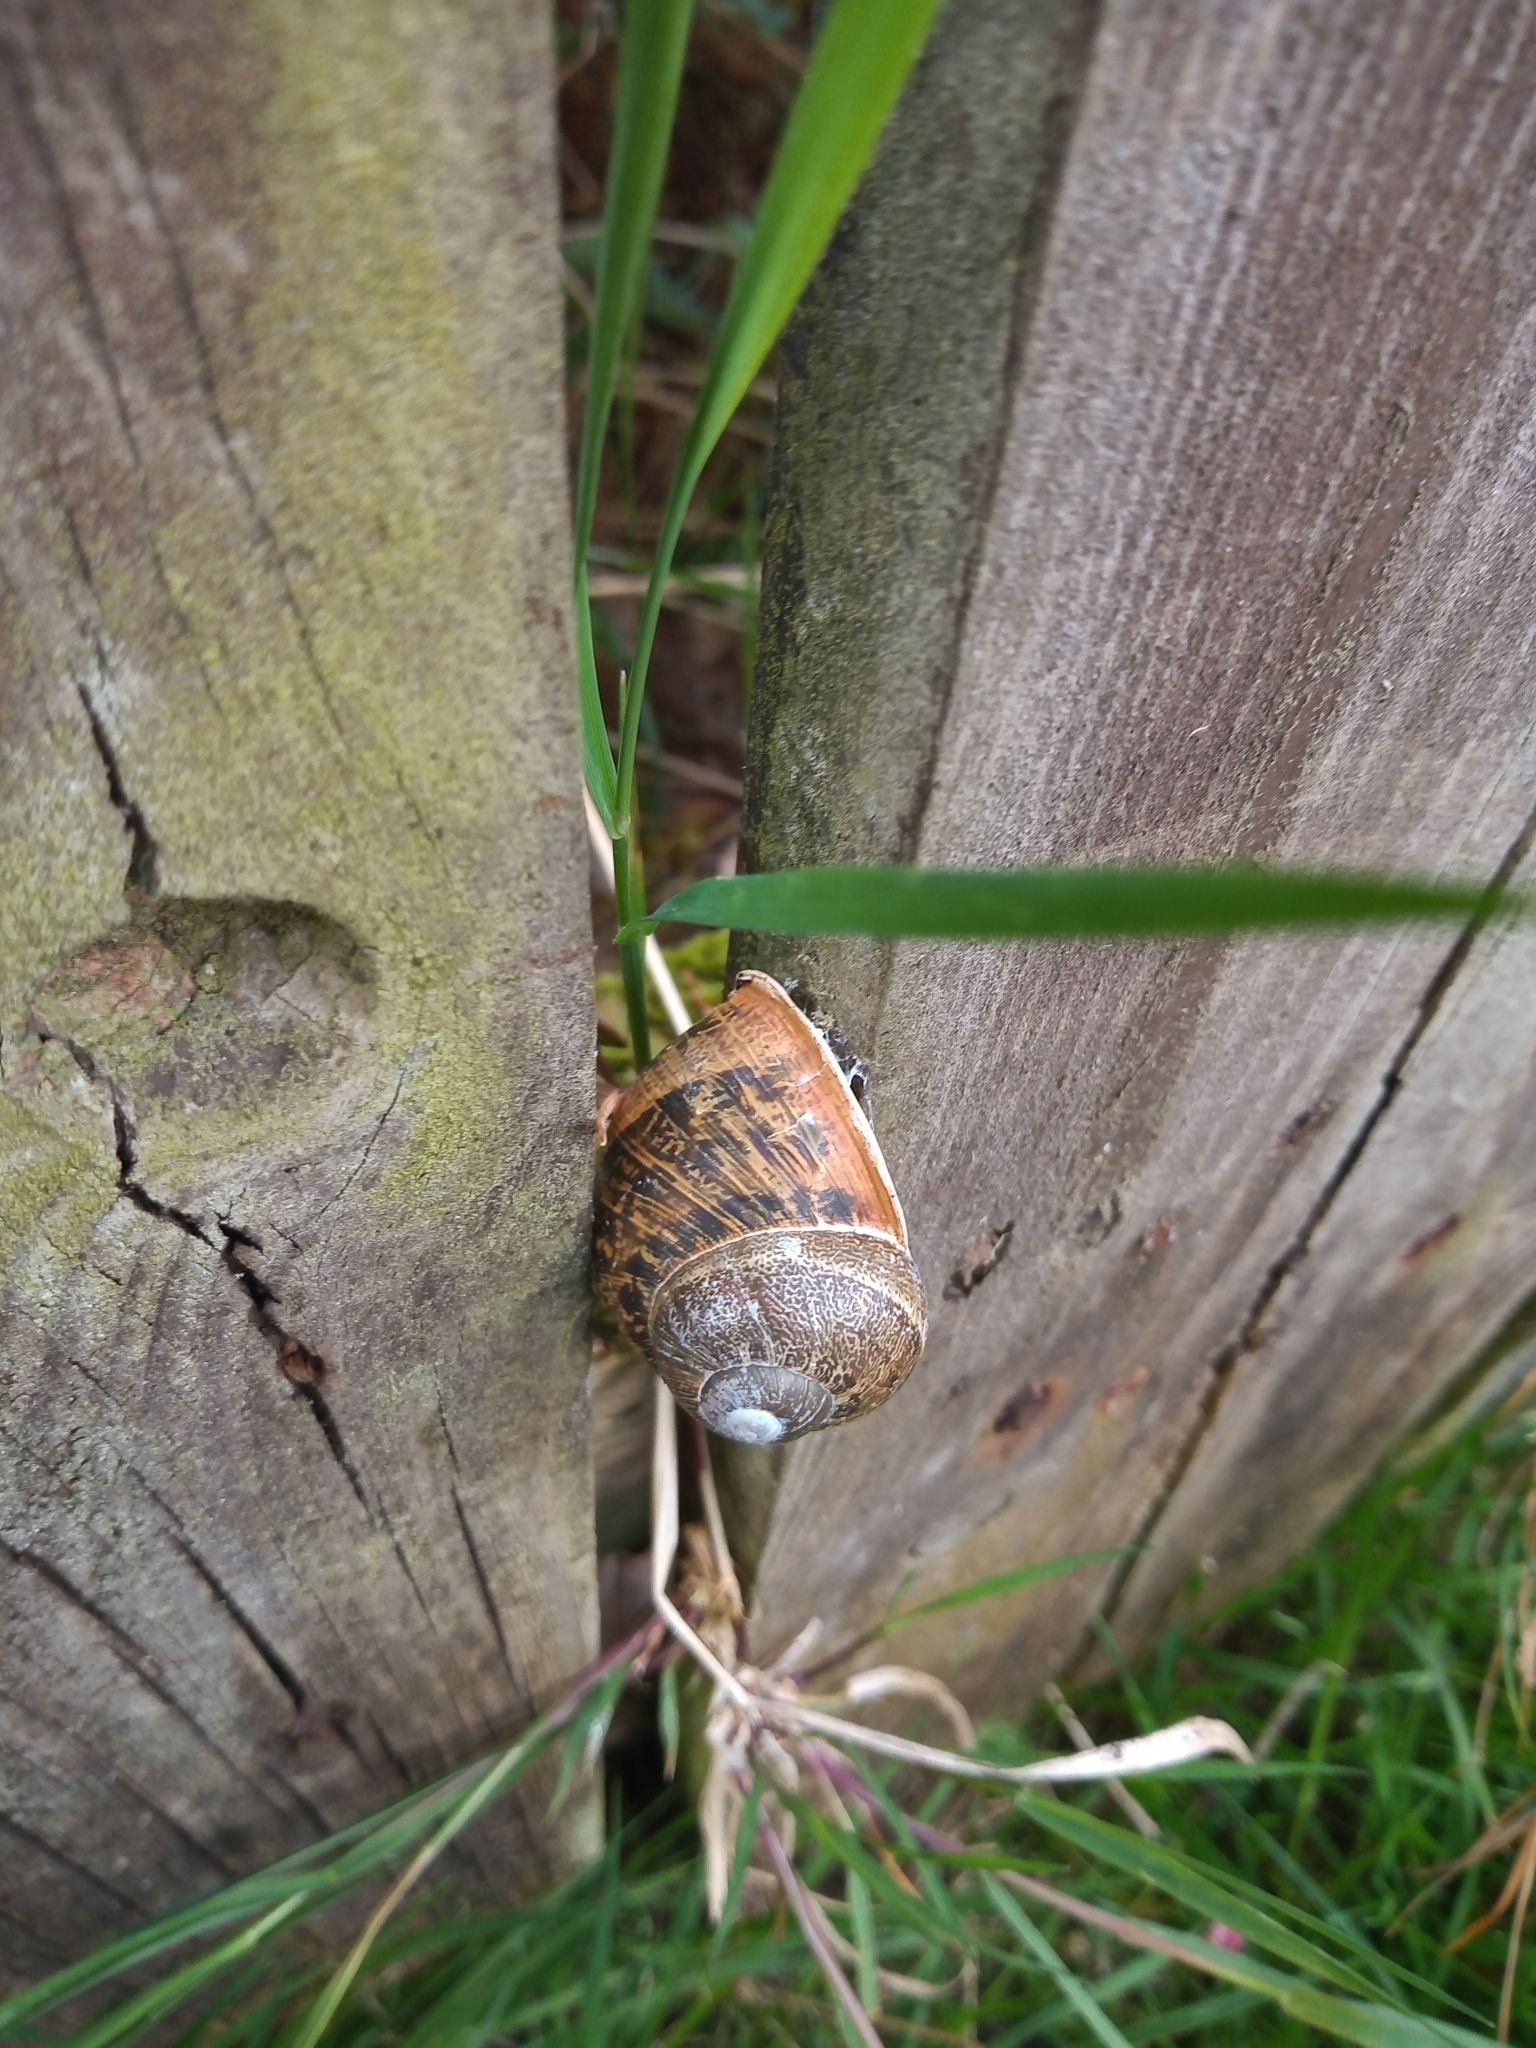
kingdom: Animalia
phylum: Mollusca
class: Gastropoda
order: Stylommatophora
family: Helicidae
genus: Cornu
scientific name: Cornu aspersum
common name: Brown garden snail
